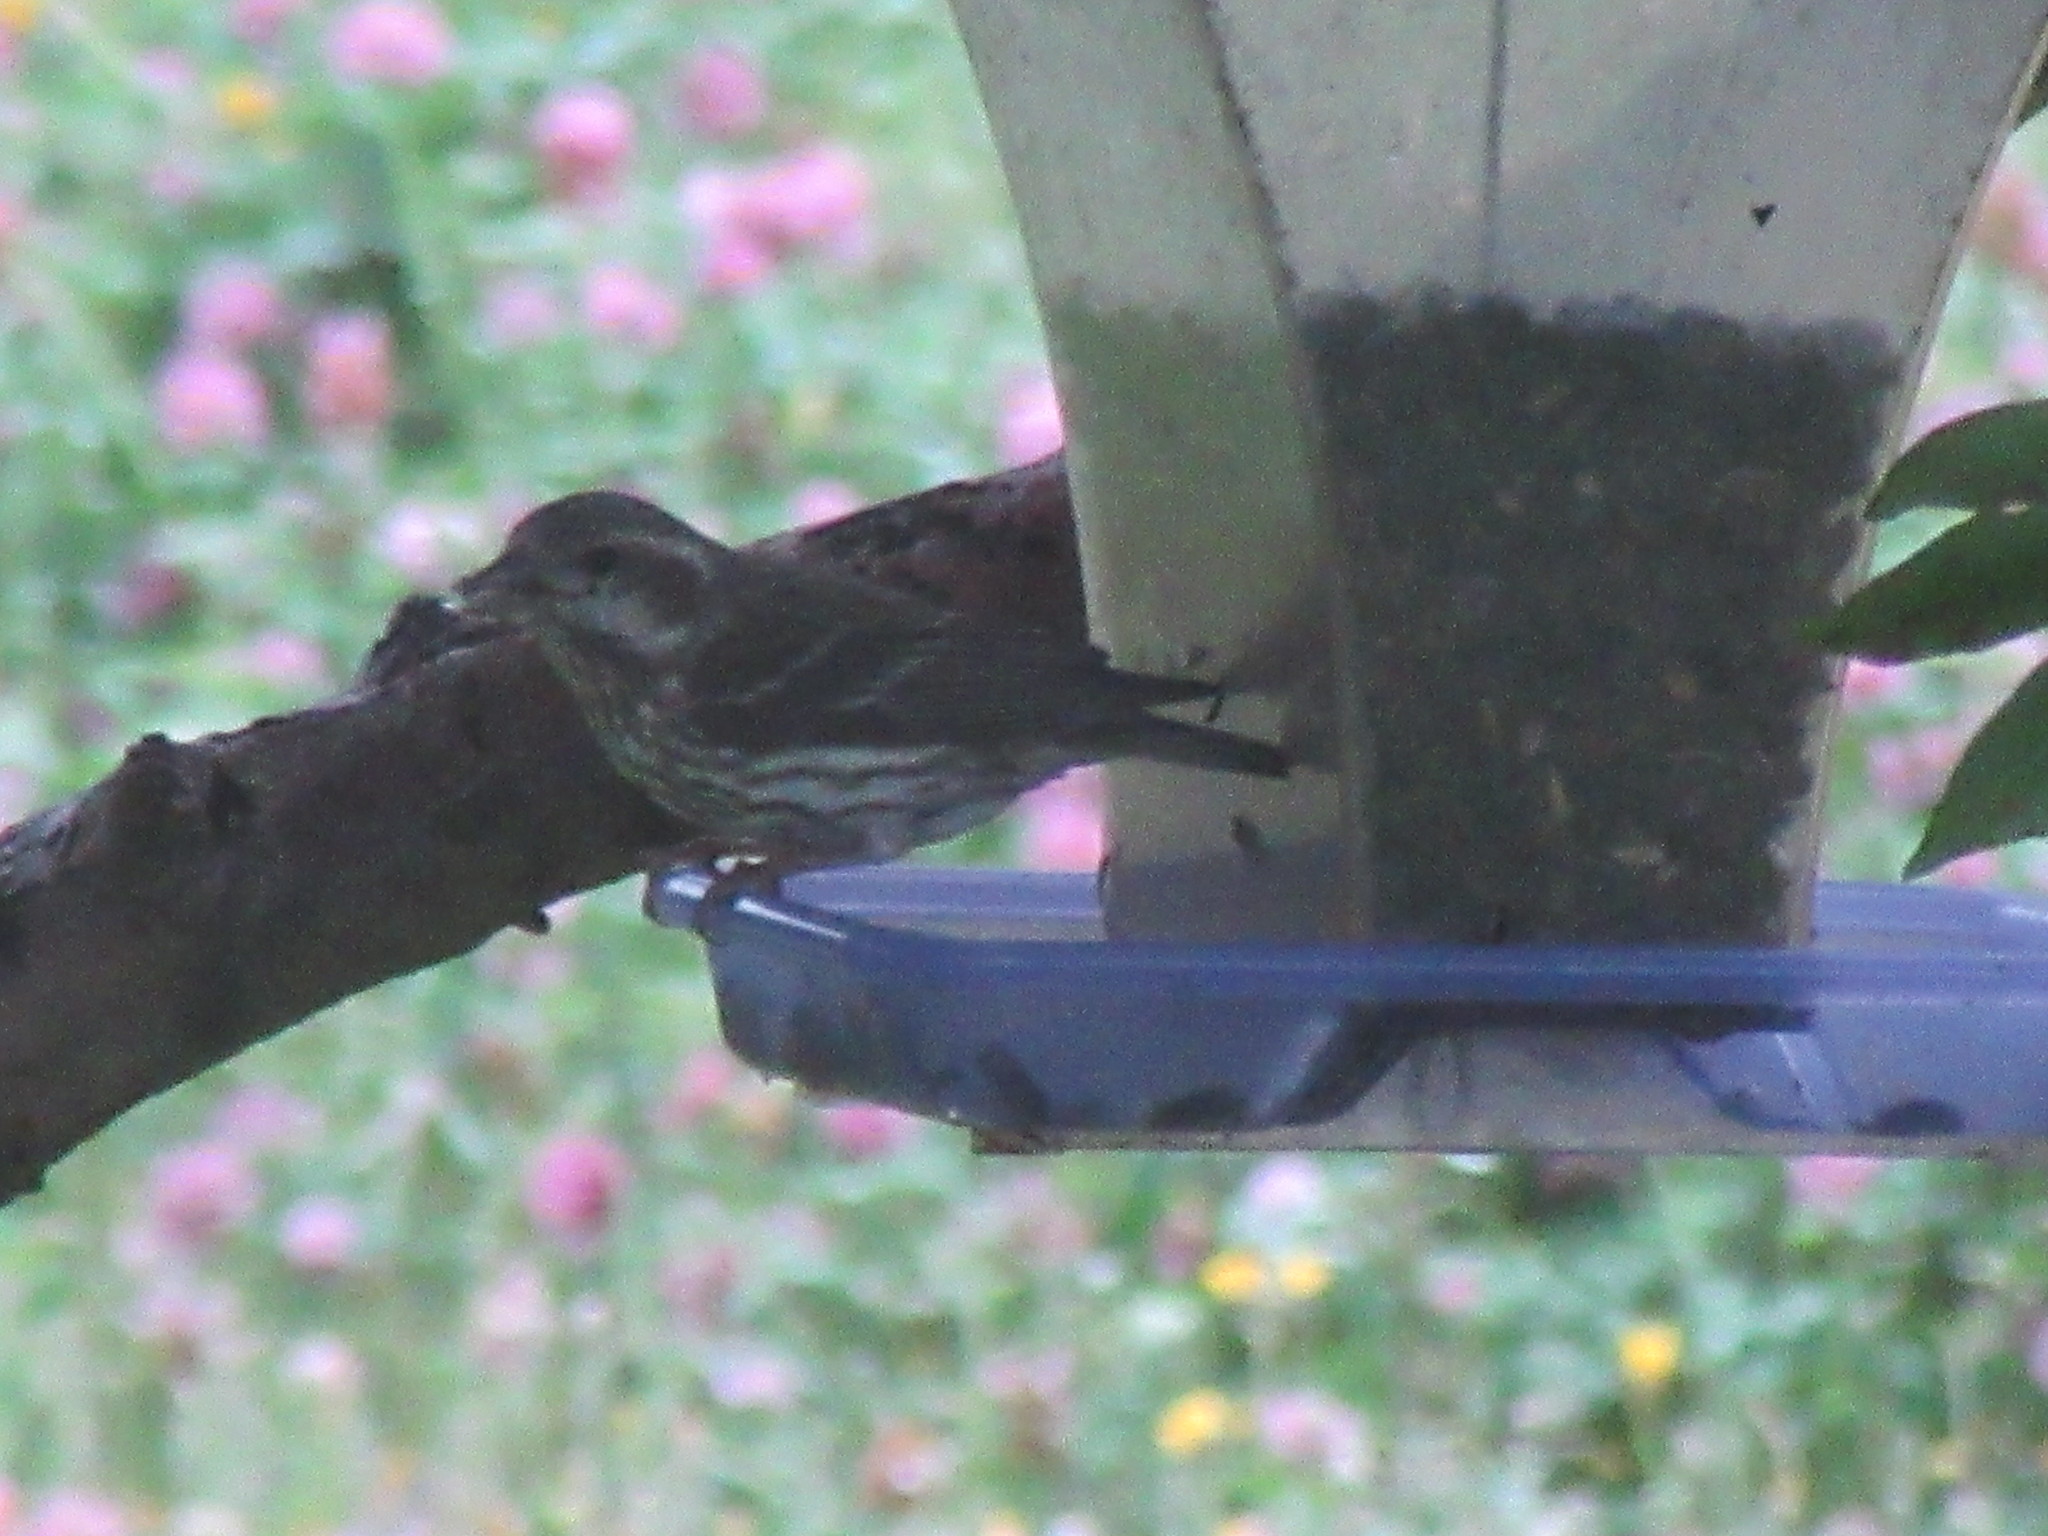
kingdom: Animalia
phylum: Chordata
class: Aves
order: Passeriformes
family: Fringillidae
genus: Haemorhous
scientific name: Haemorhous purpureus
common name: Purple finch
